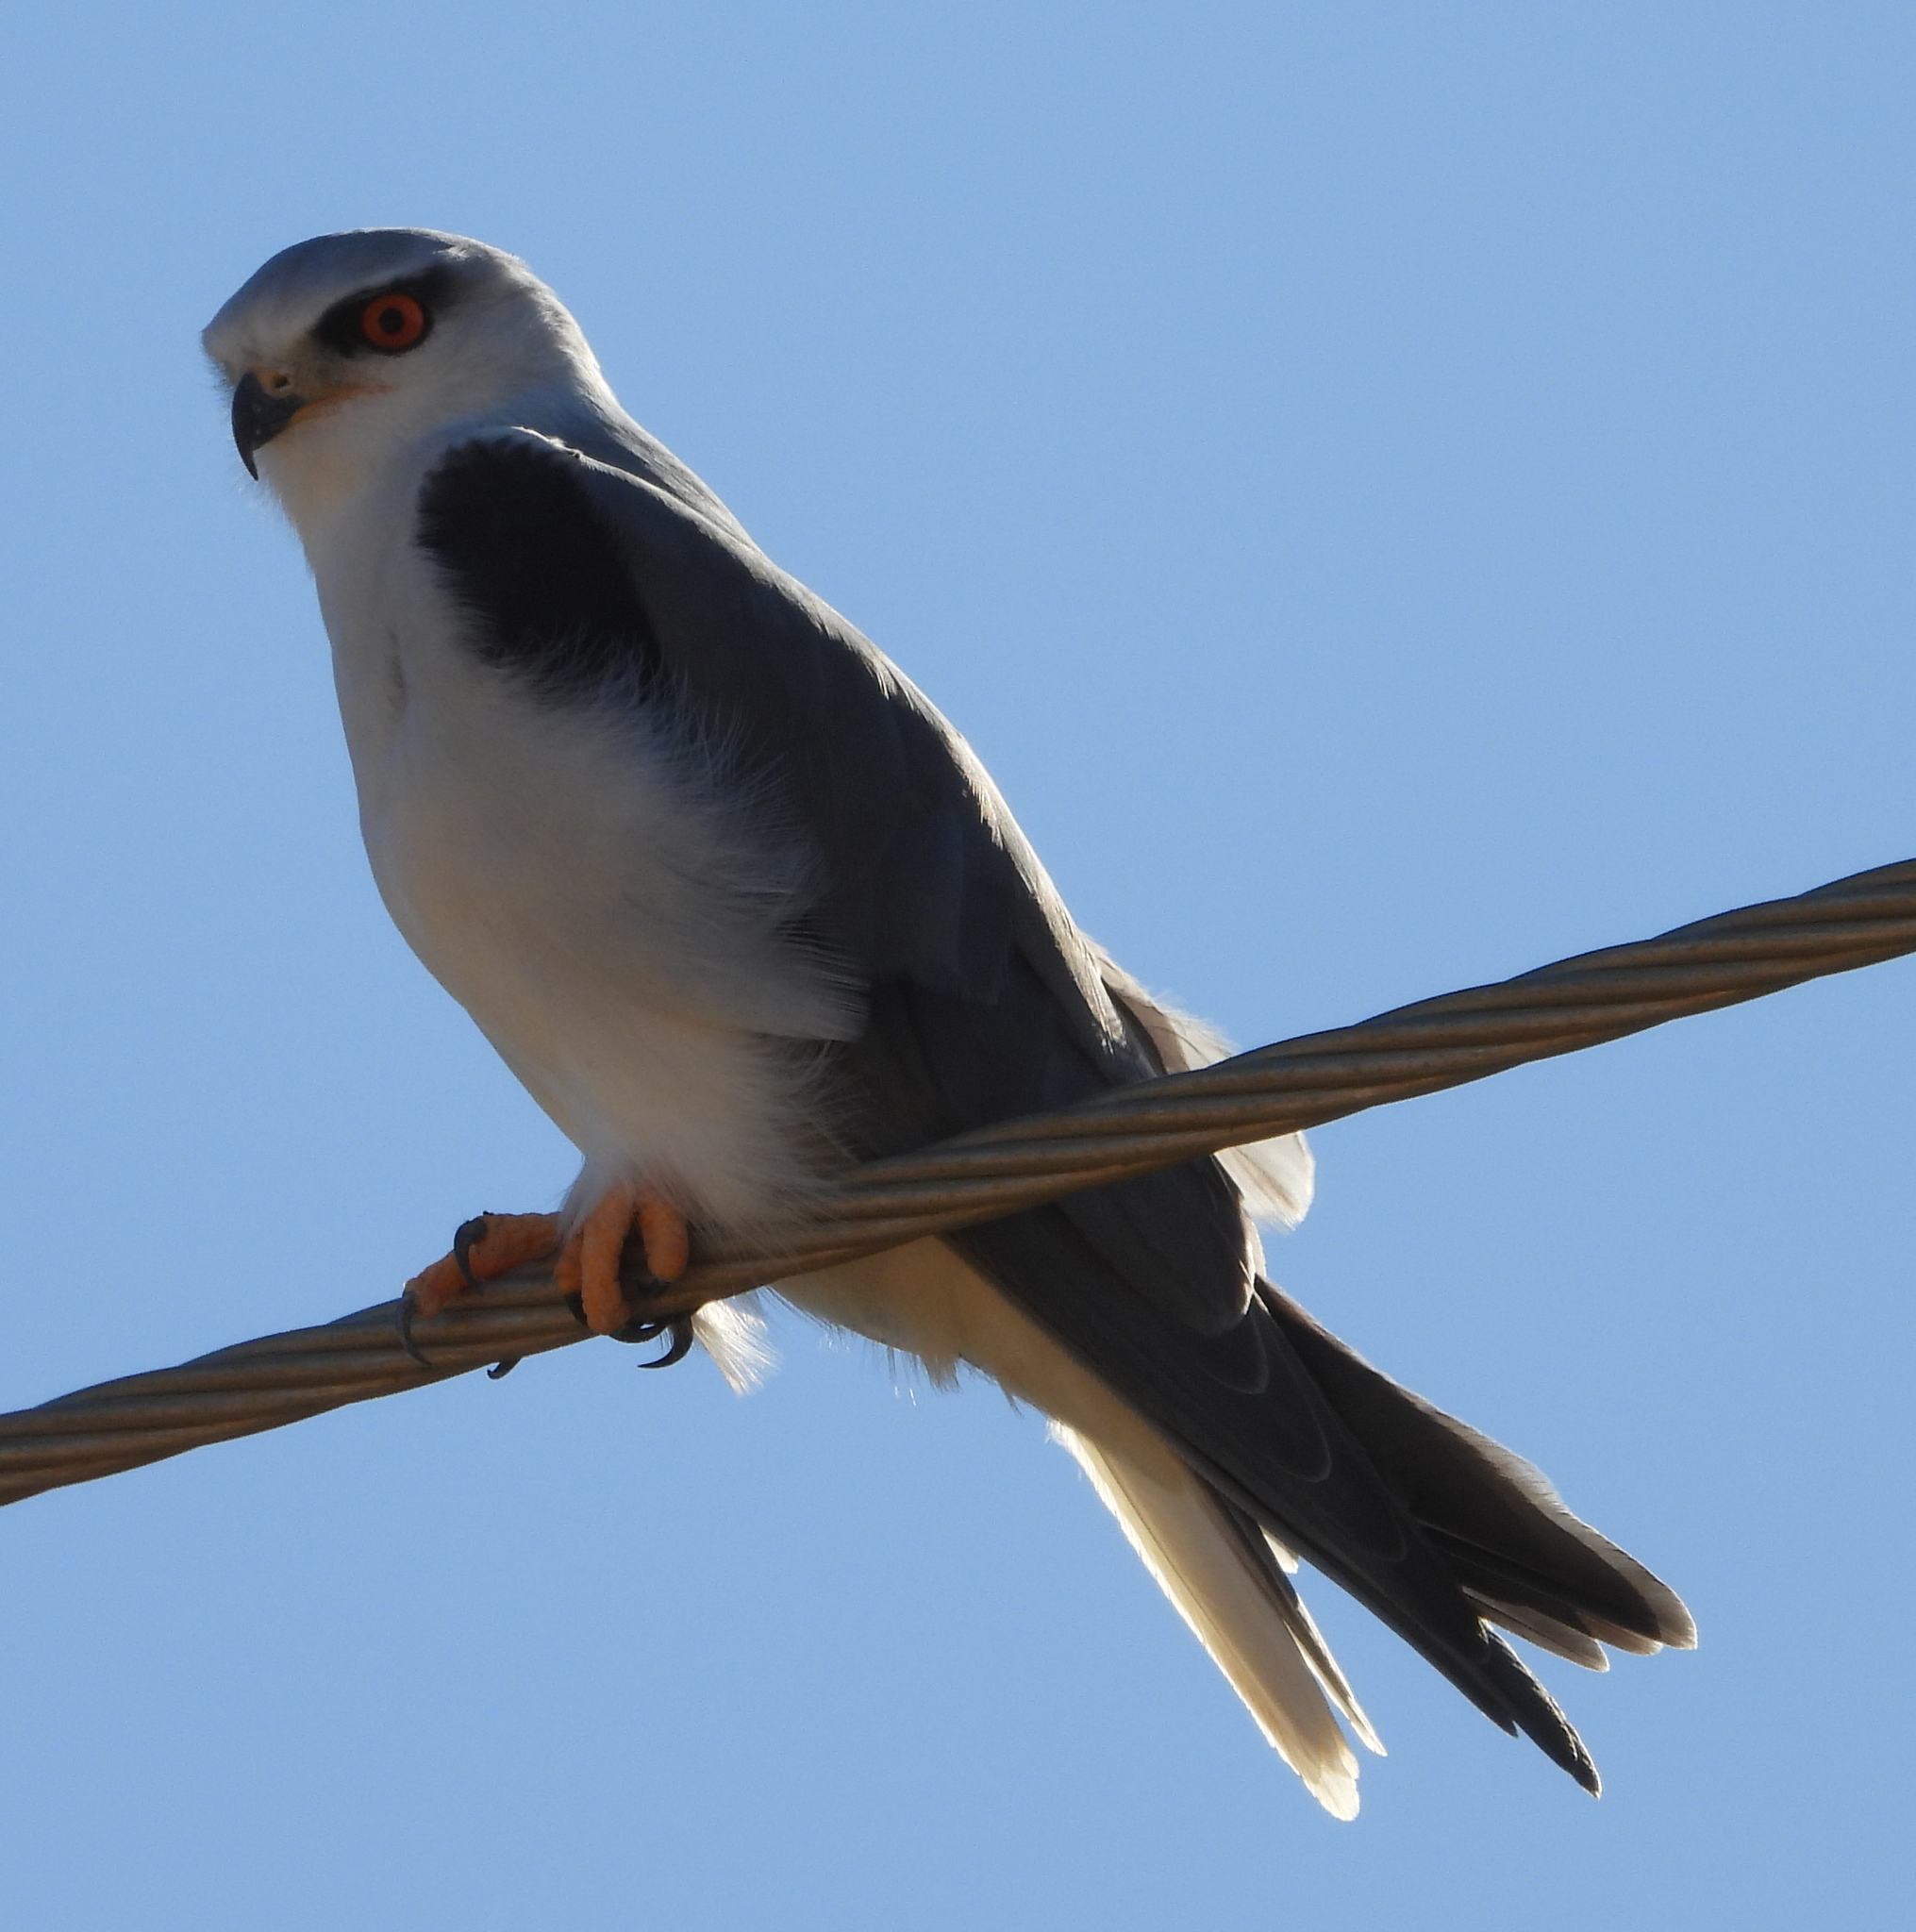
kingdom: Animalia
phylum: Chordata
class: Aves
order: Accipitriformes
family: Accipitridae
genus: Elanus
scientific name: Elanus caeruleus
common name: Black-winged kite
